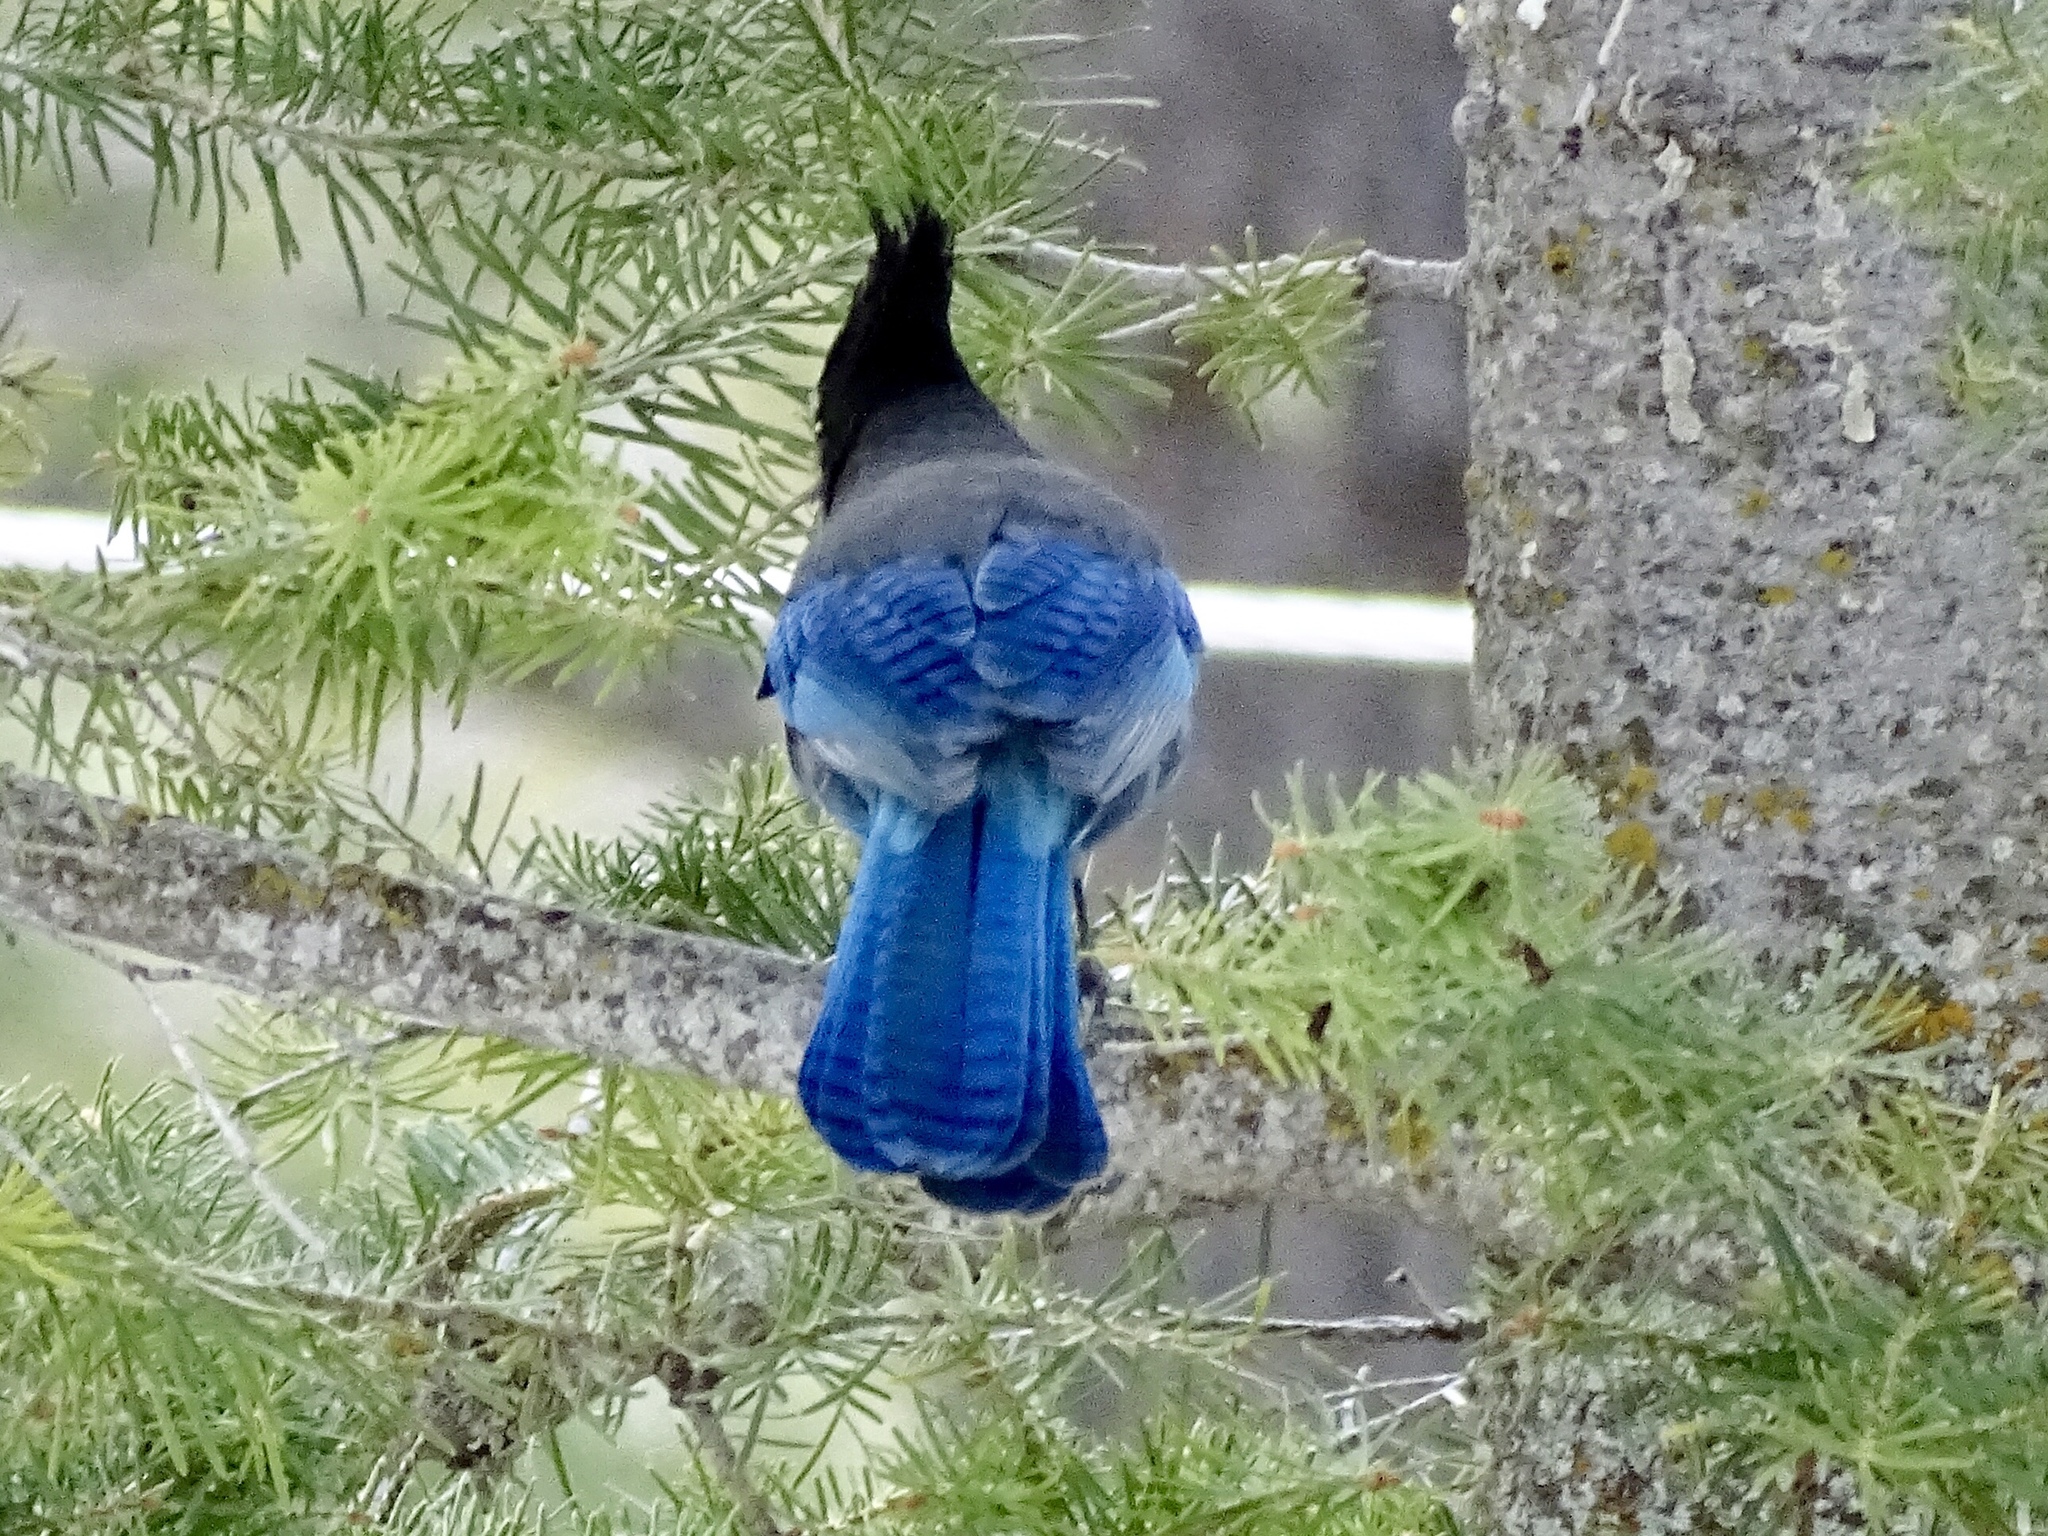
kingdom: Animalia
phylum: Chordata
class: Aves
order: Passeriformes
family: Corvidae
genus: Cyanocitta
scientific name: Cyanocitta stelleri
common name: Steller's jay
